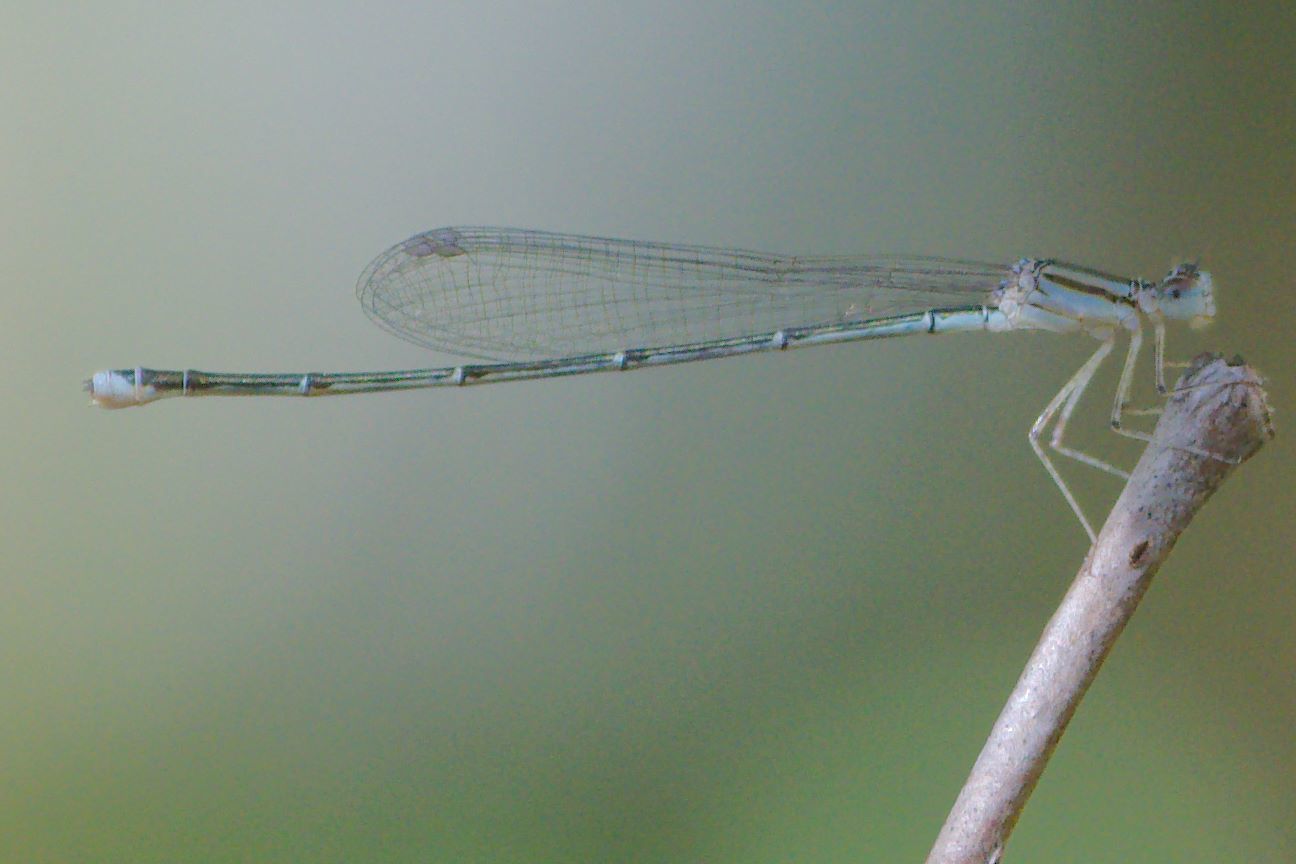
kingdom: Animalia
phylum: Arthropoda
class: Insecta
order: Odonata
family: Coenagrionidae
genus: Enallagma
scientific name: Enallagma vesperum
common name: Vesper bluet
